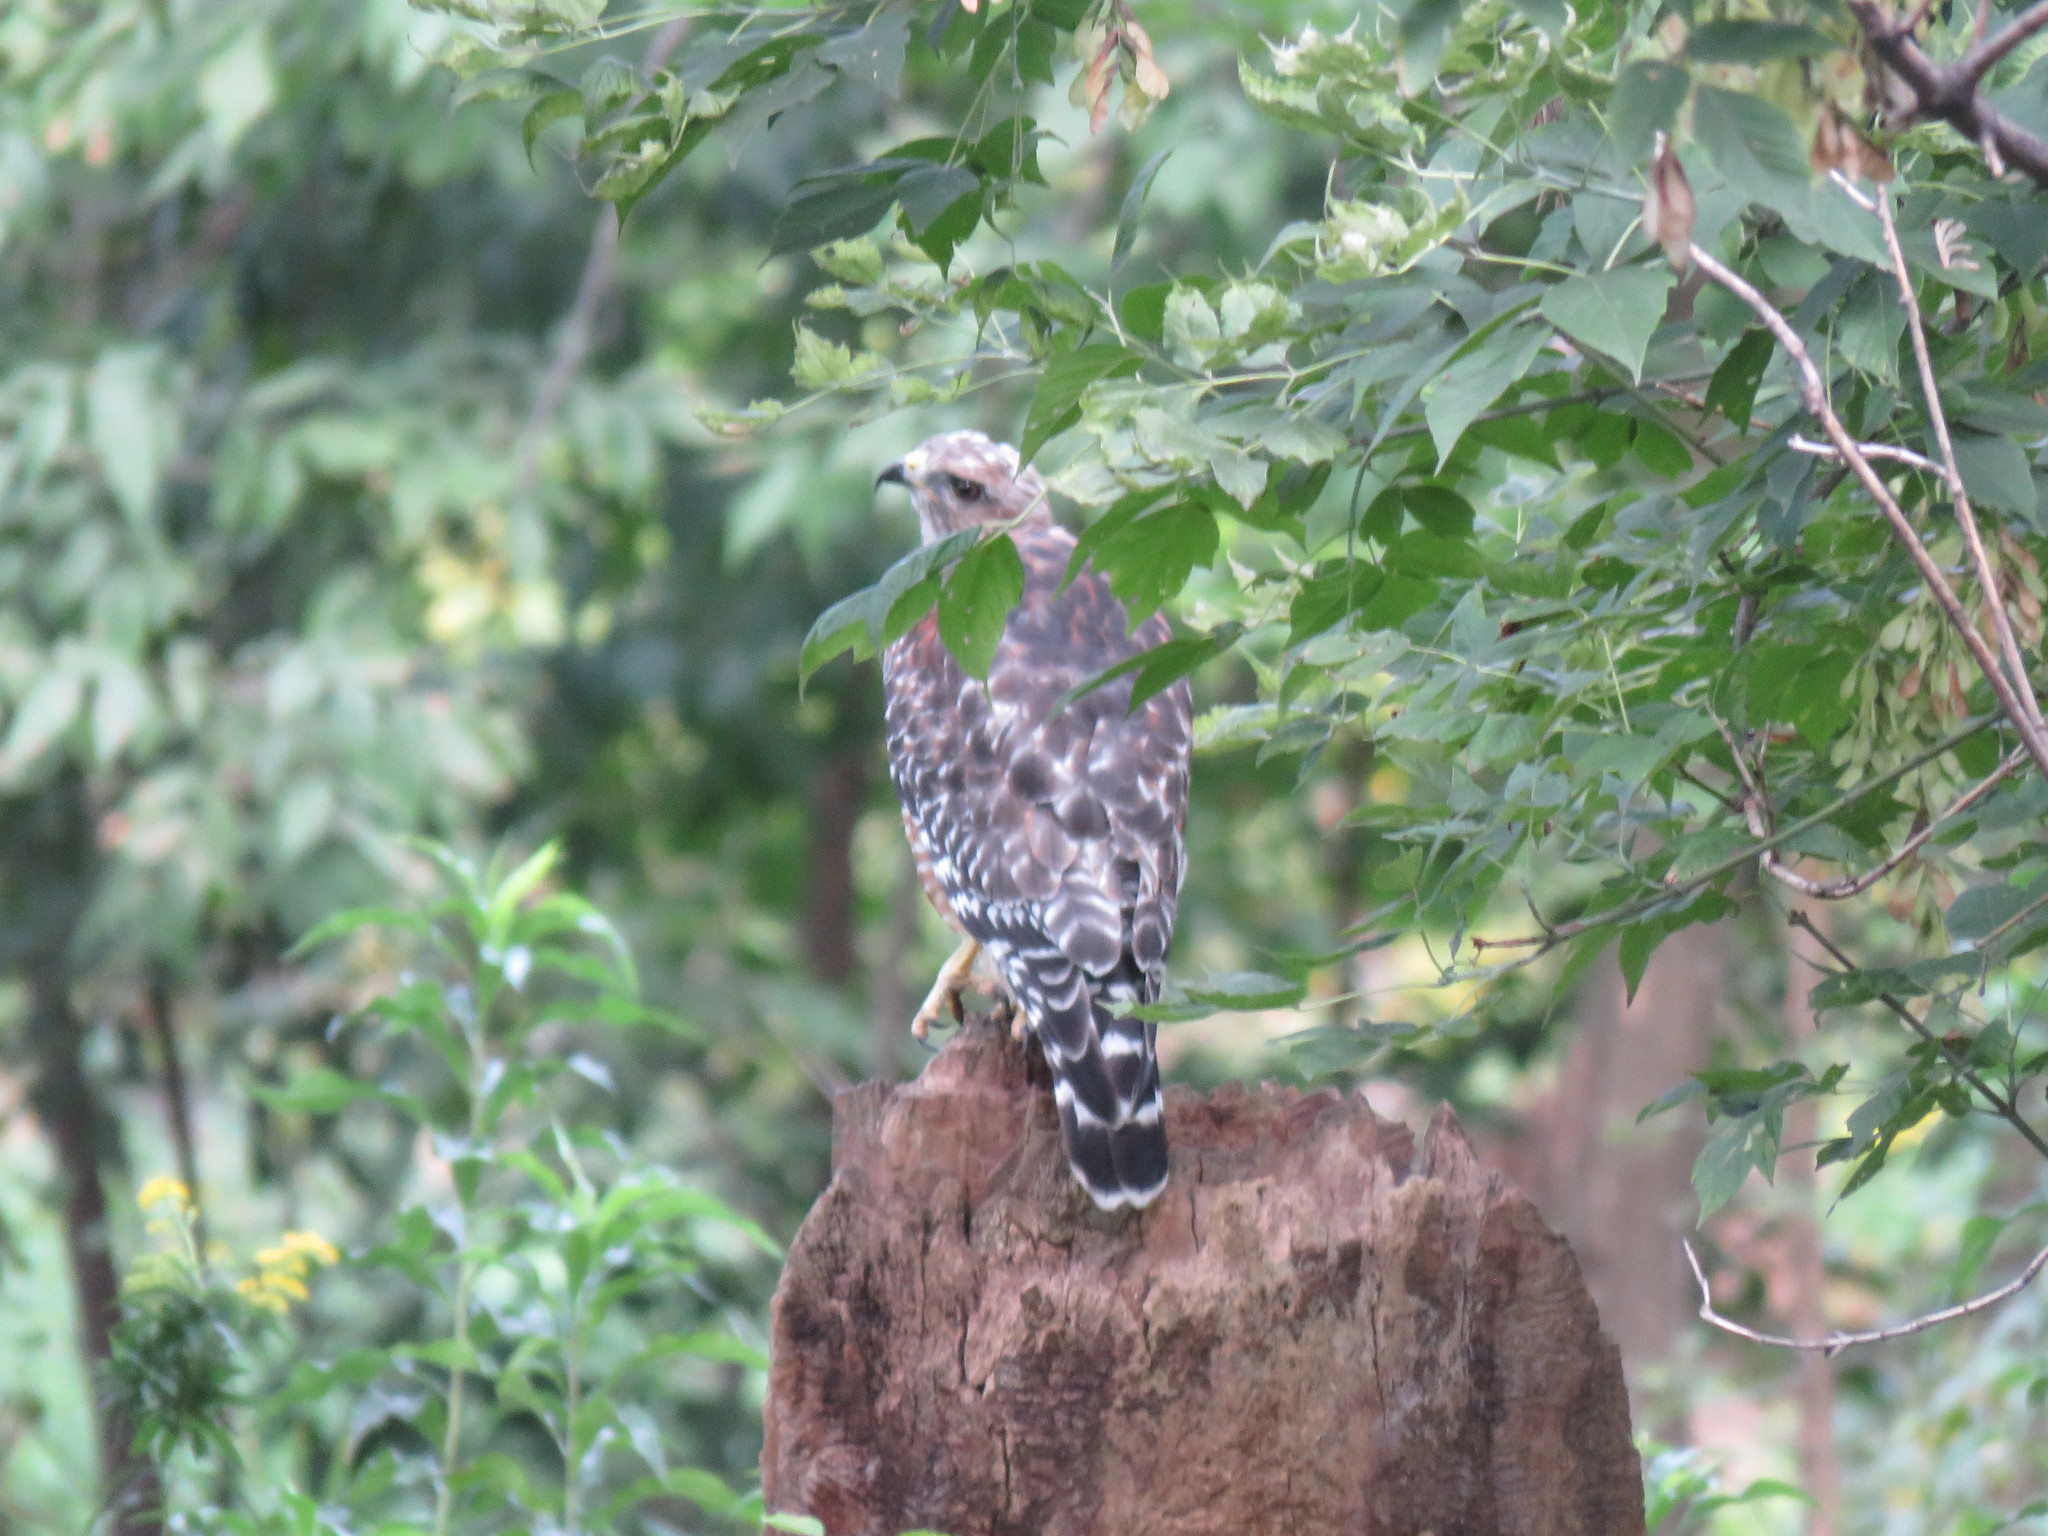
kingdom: Animalia
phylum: Chordata
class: Aves
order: Accipitriformes
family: Accipitridae
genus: Buteo
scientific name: Buteo lineatus
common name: Red-shouldered hawk
